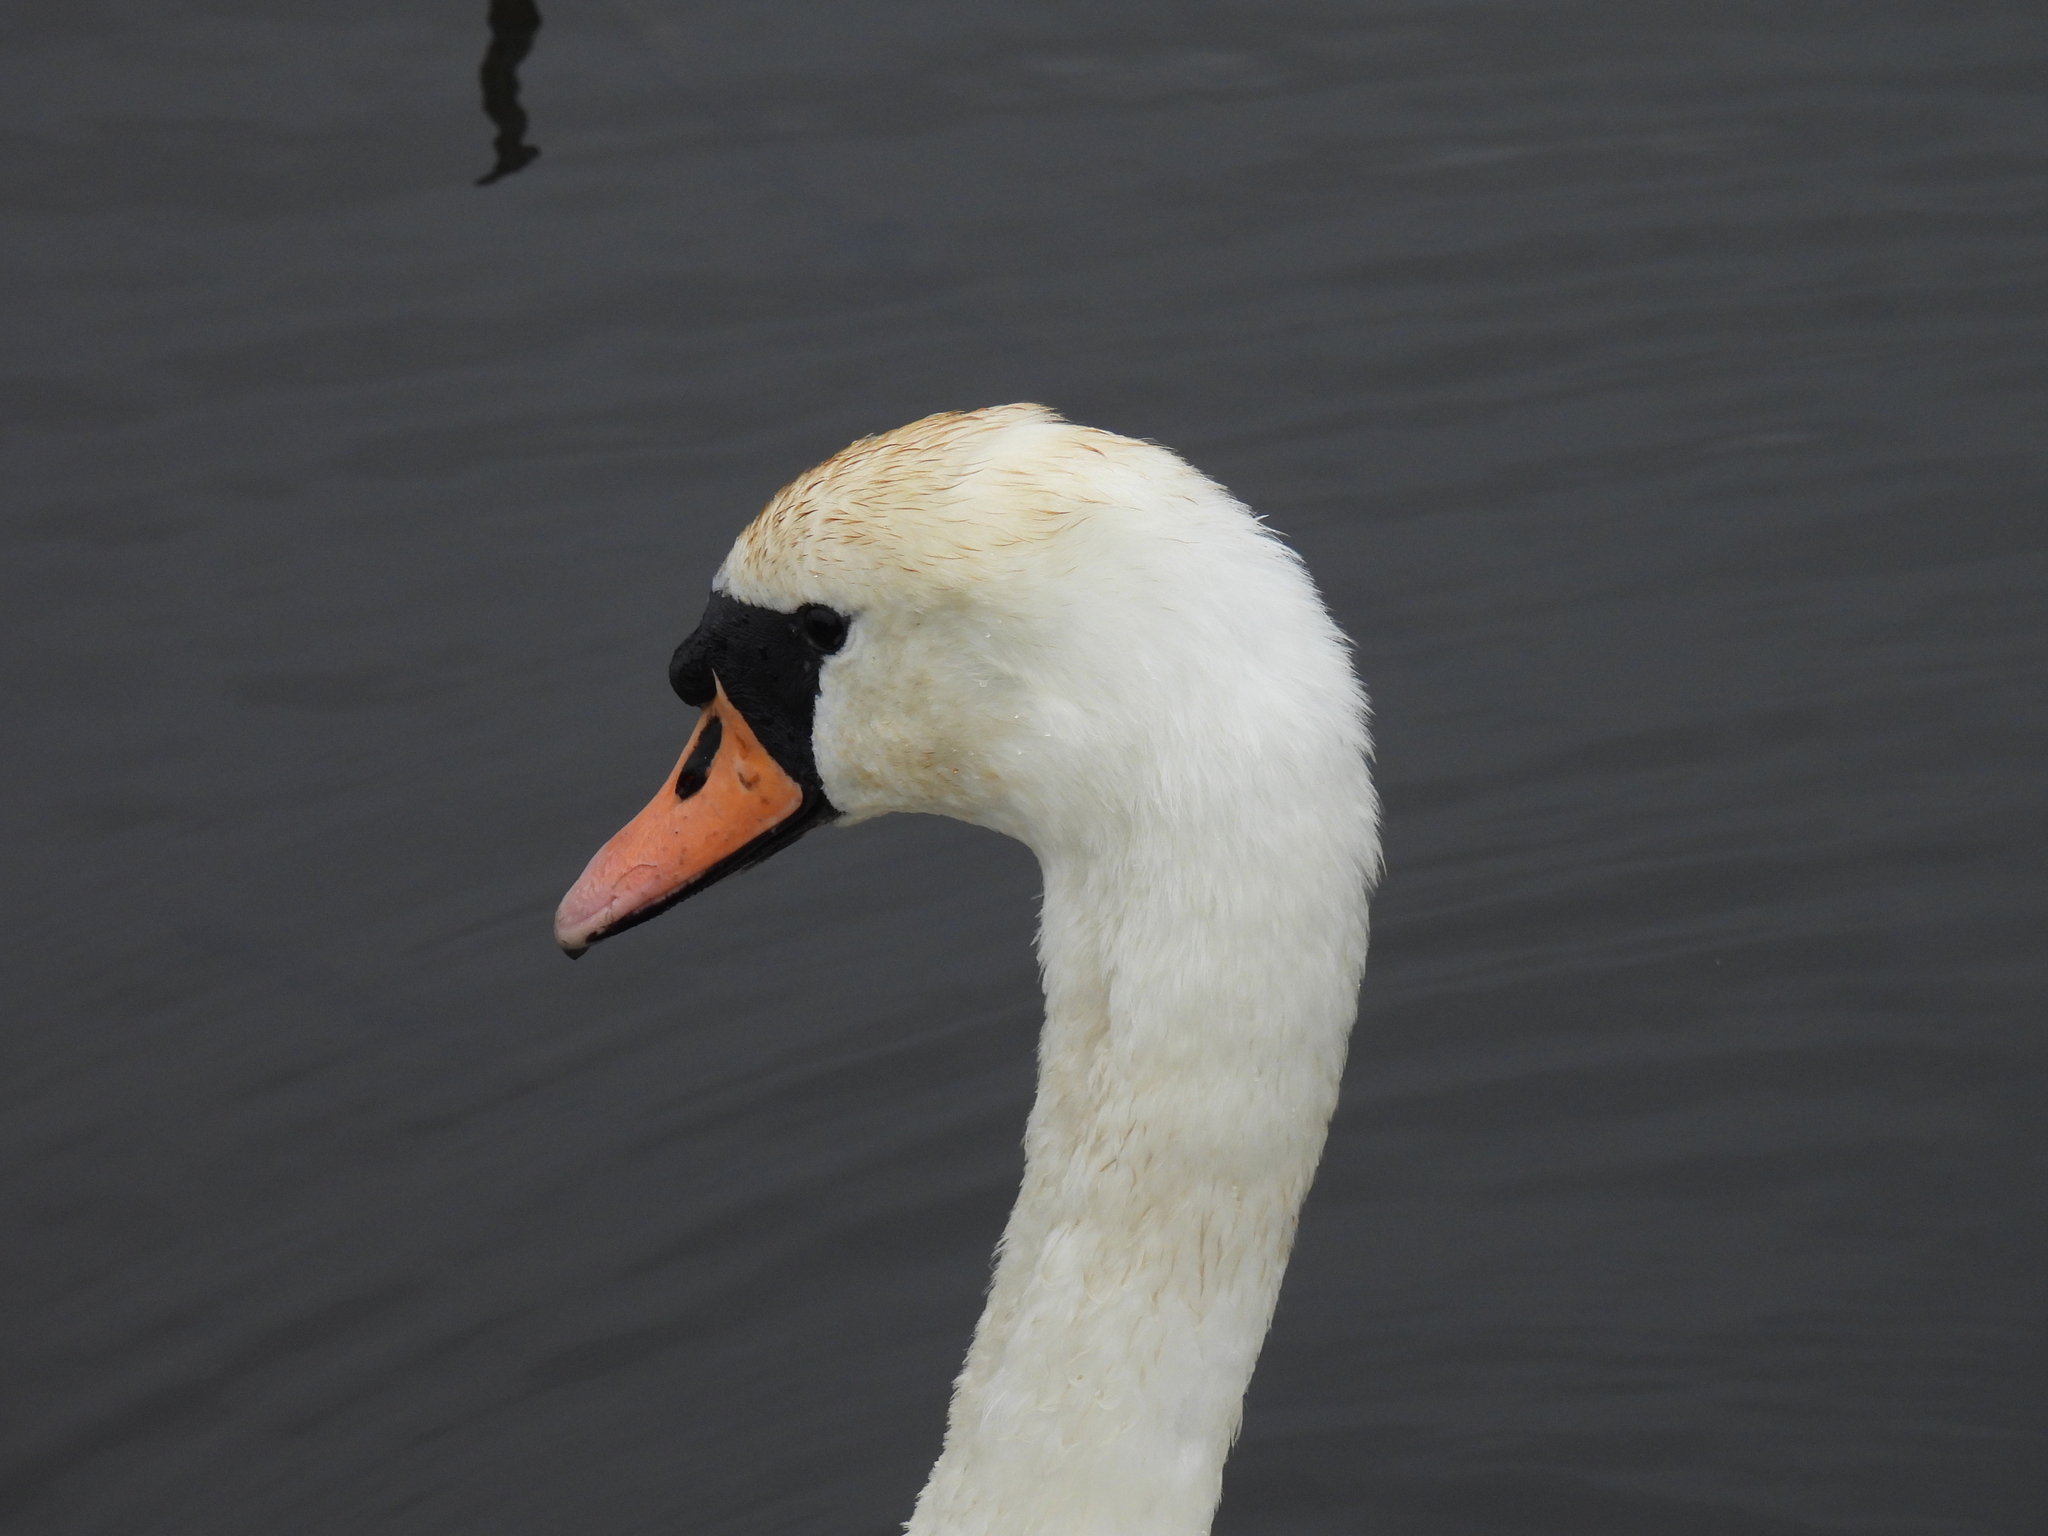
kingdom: Animalia
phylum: Chordata
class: Aves
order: Anseriformes
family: Anatidae
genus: Cygnus
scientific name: Cygnus olor
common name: Mute swan
